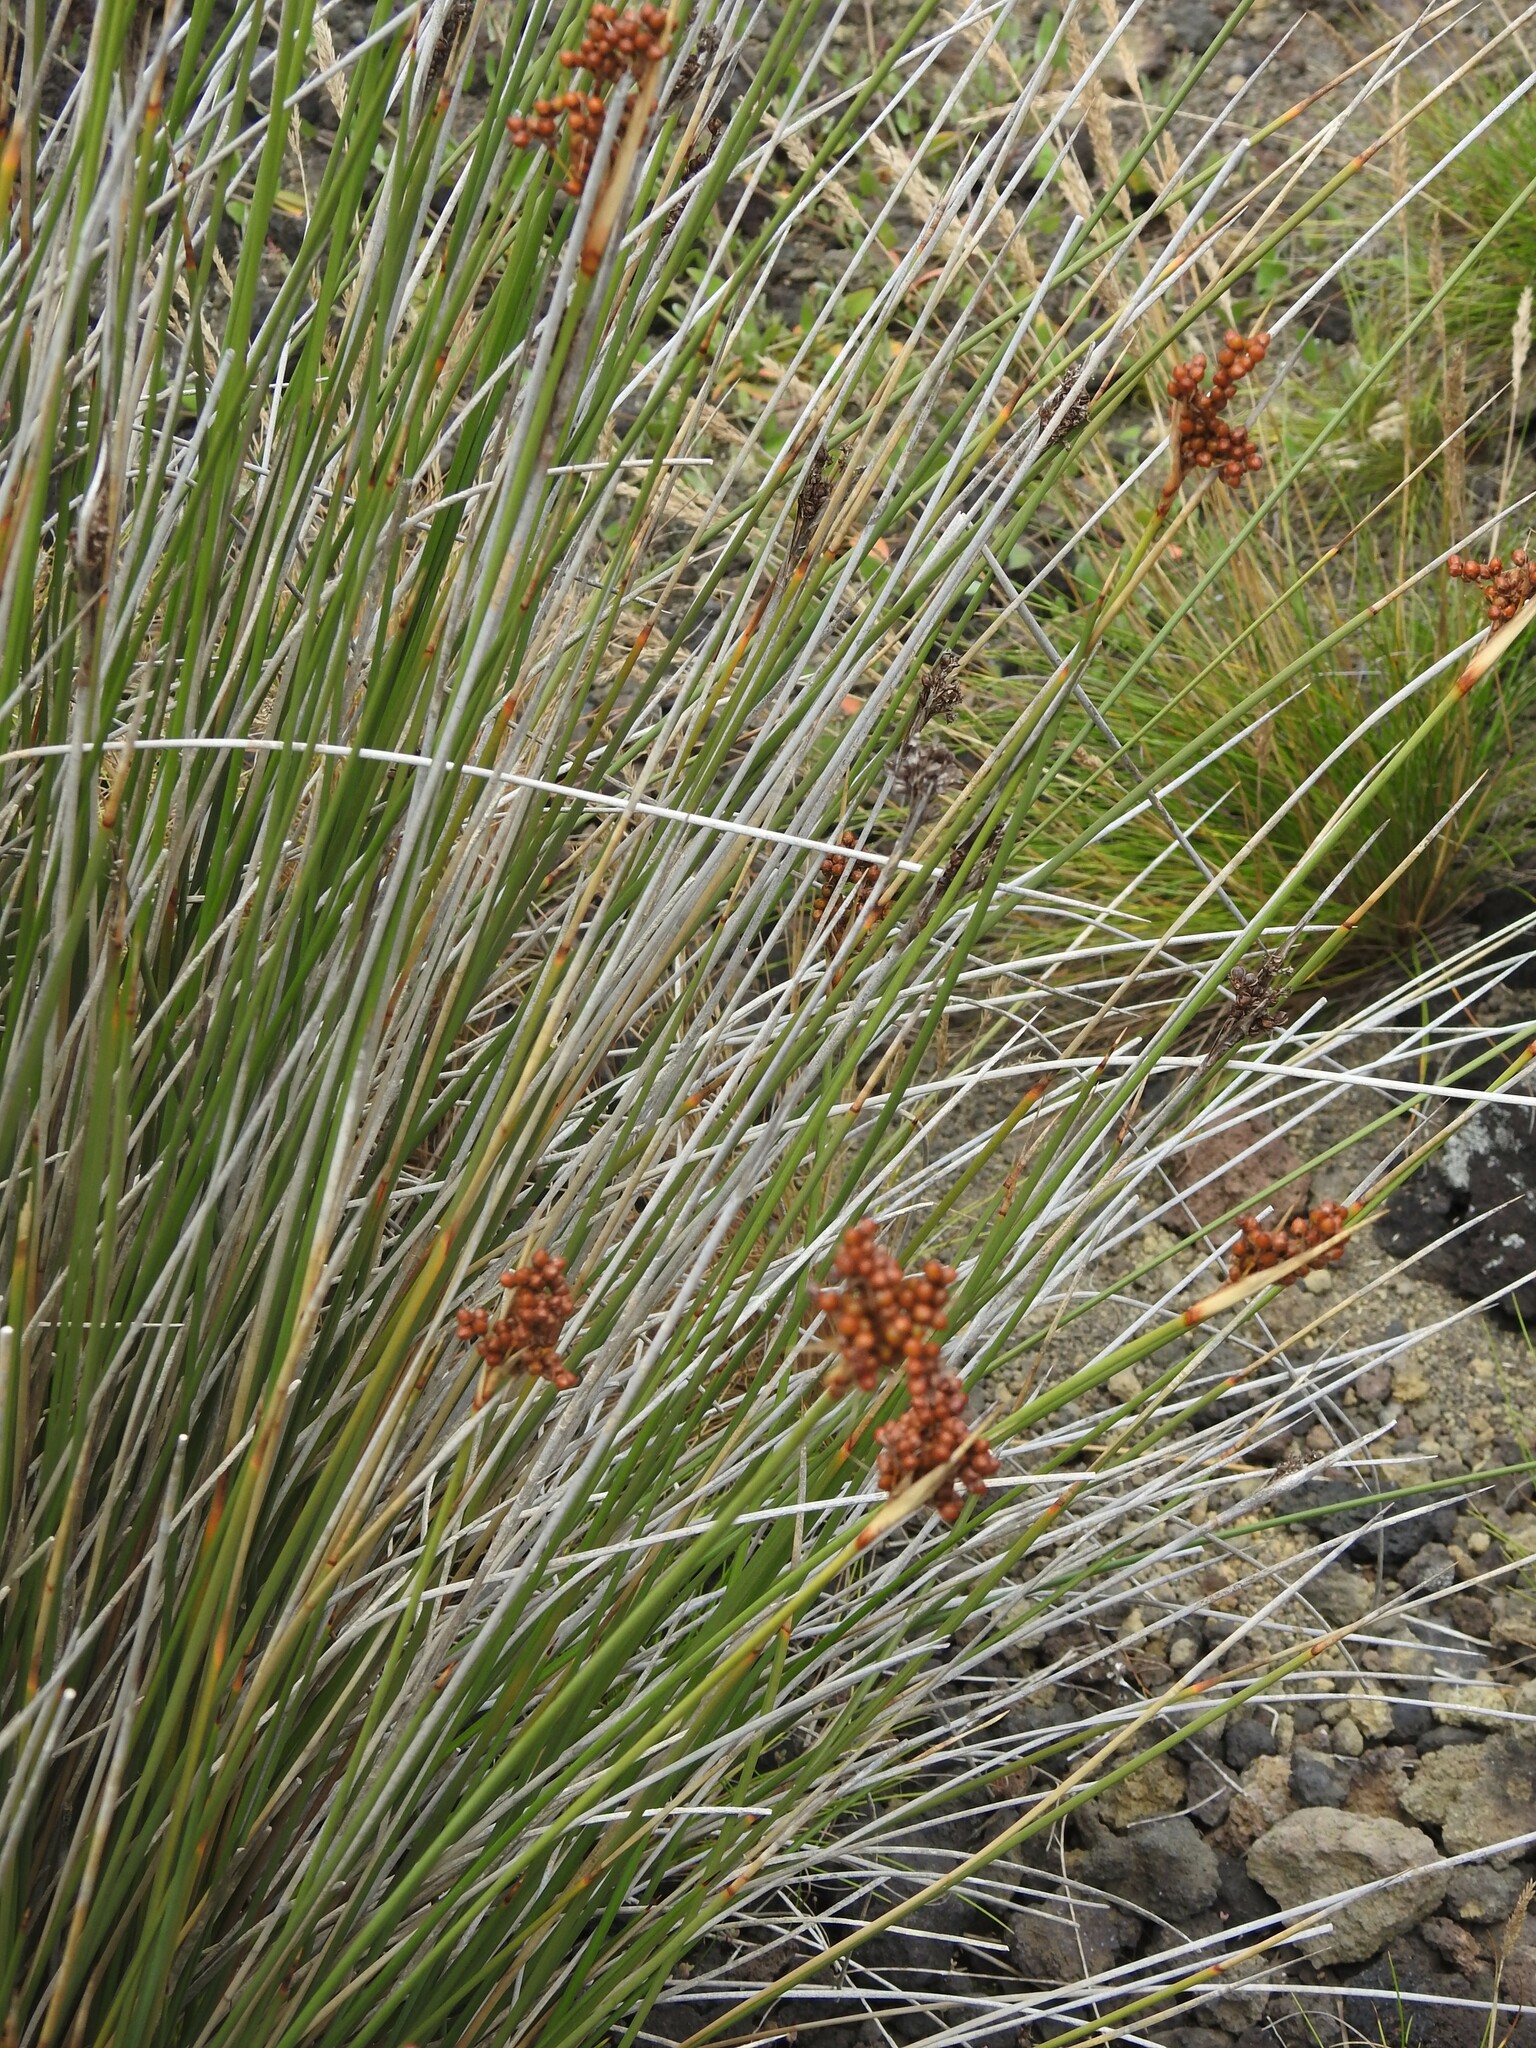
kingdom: Plantae
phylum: Tracheophyta
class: Liliopsida
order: Poales
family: Juncaceae
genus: Juncus
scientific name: Juncus acutus
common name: Sharp rush
